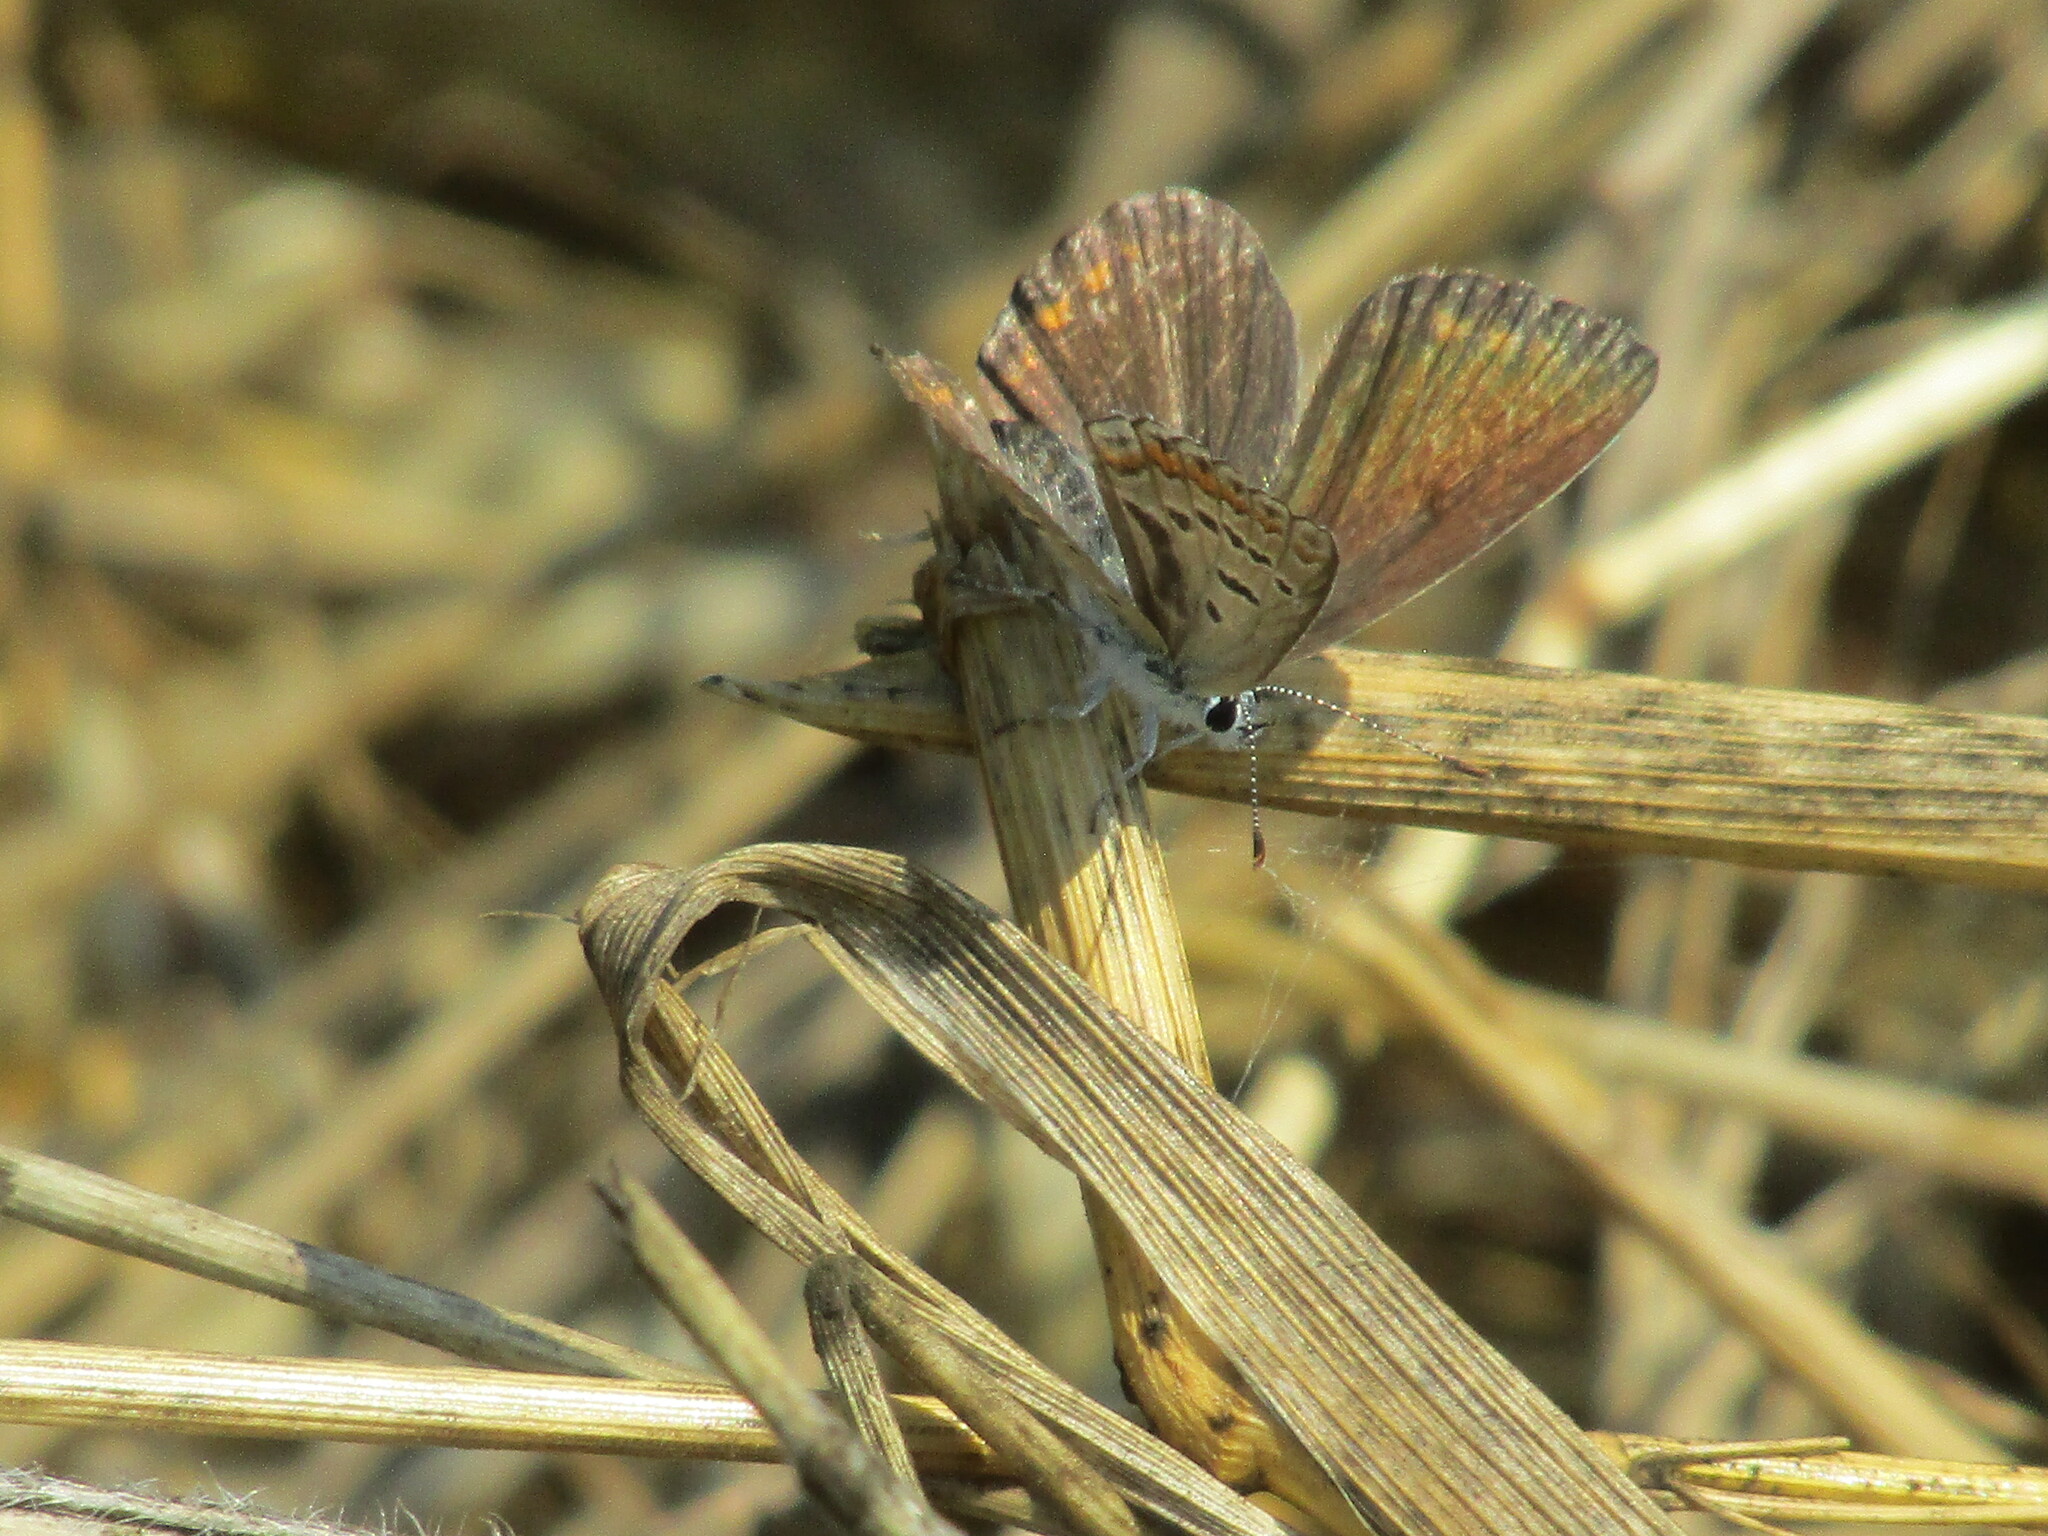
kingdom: Animalia
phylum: Arthropoda
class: Insecta
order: Lepidoptera
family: Lycaenidae
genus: Polyommatus
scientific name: Polyommatus icarus
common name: Common blue
